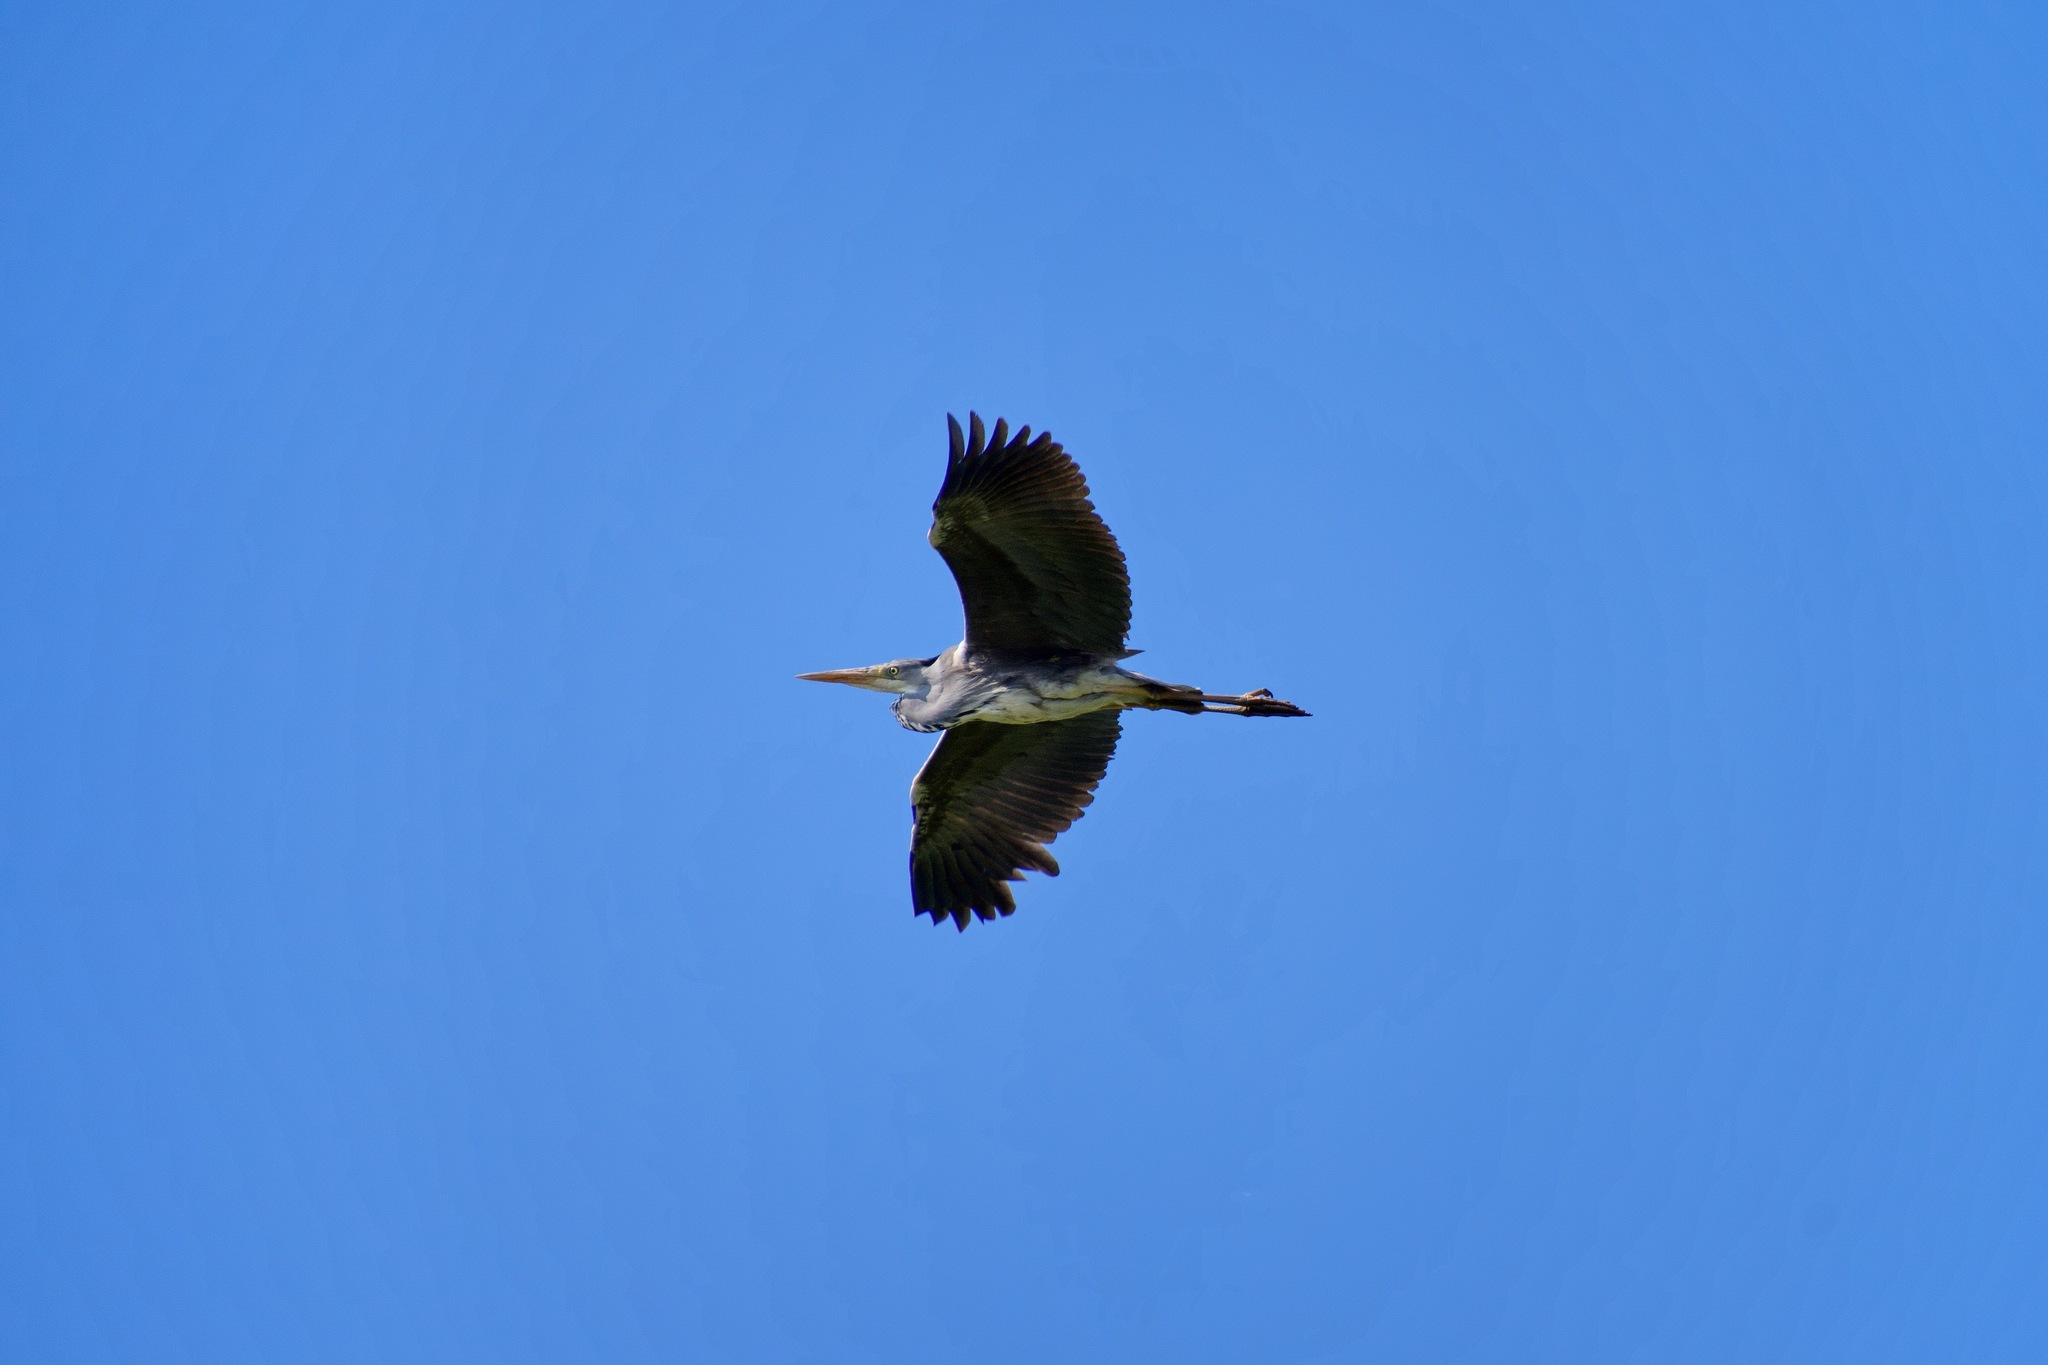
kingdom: Animalia
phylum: Chordata
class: Aves
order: Pelecaniformes
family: Ardeidae
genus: Ardea
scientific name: Ardea cinerea
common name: Grey heron
